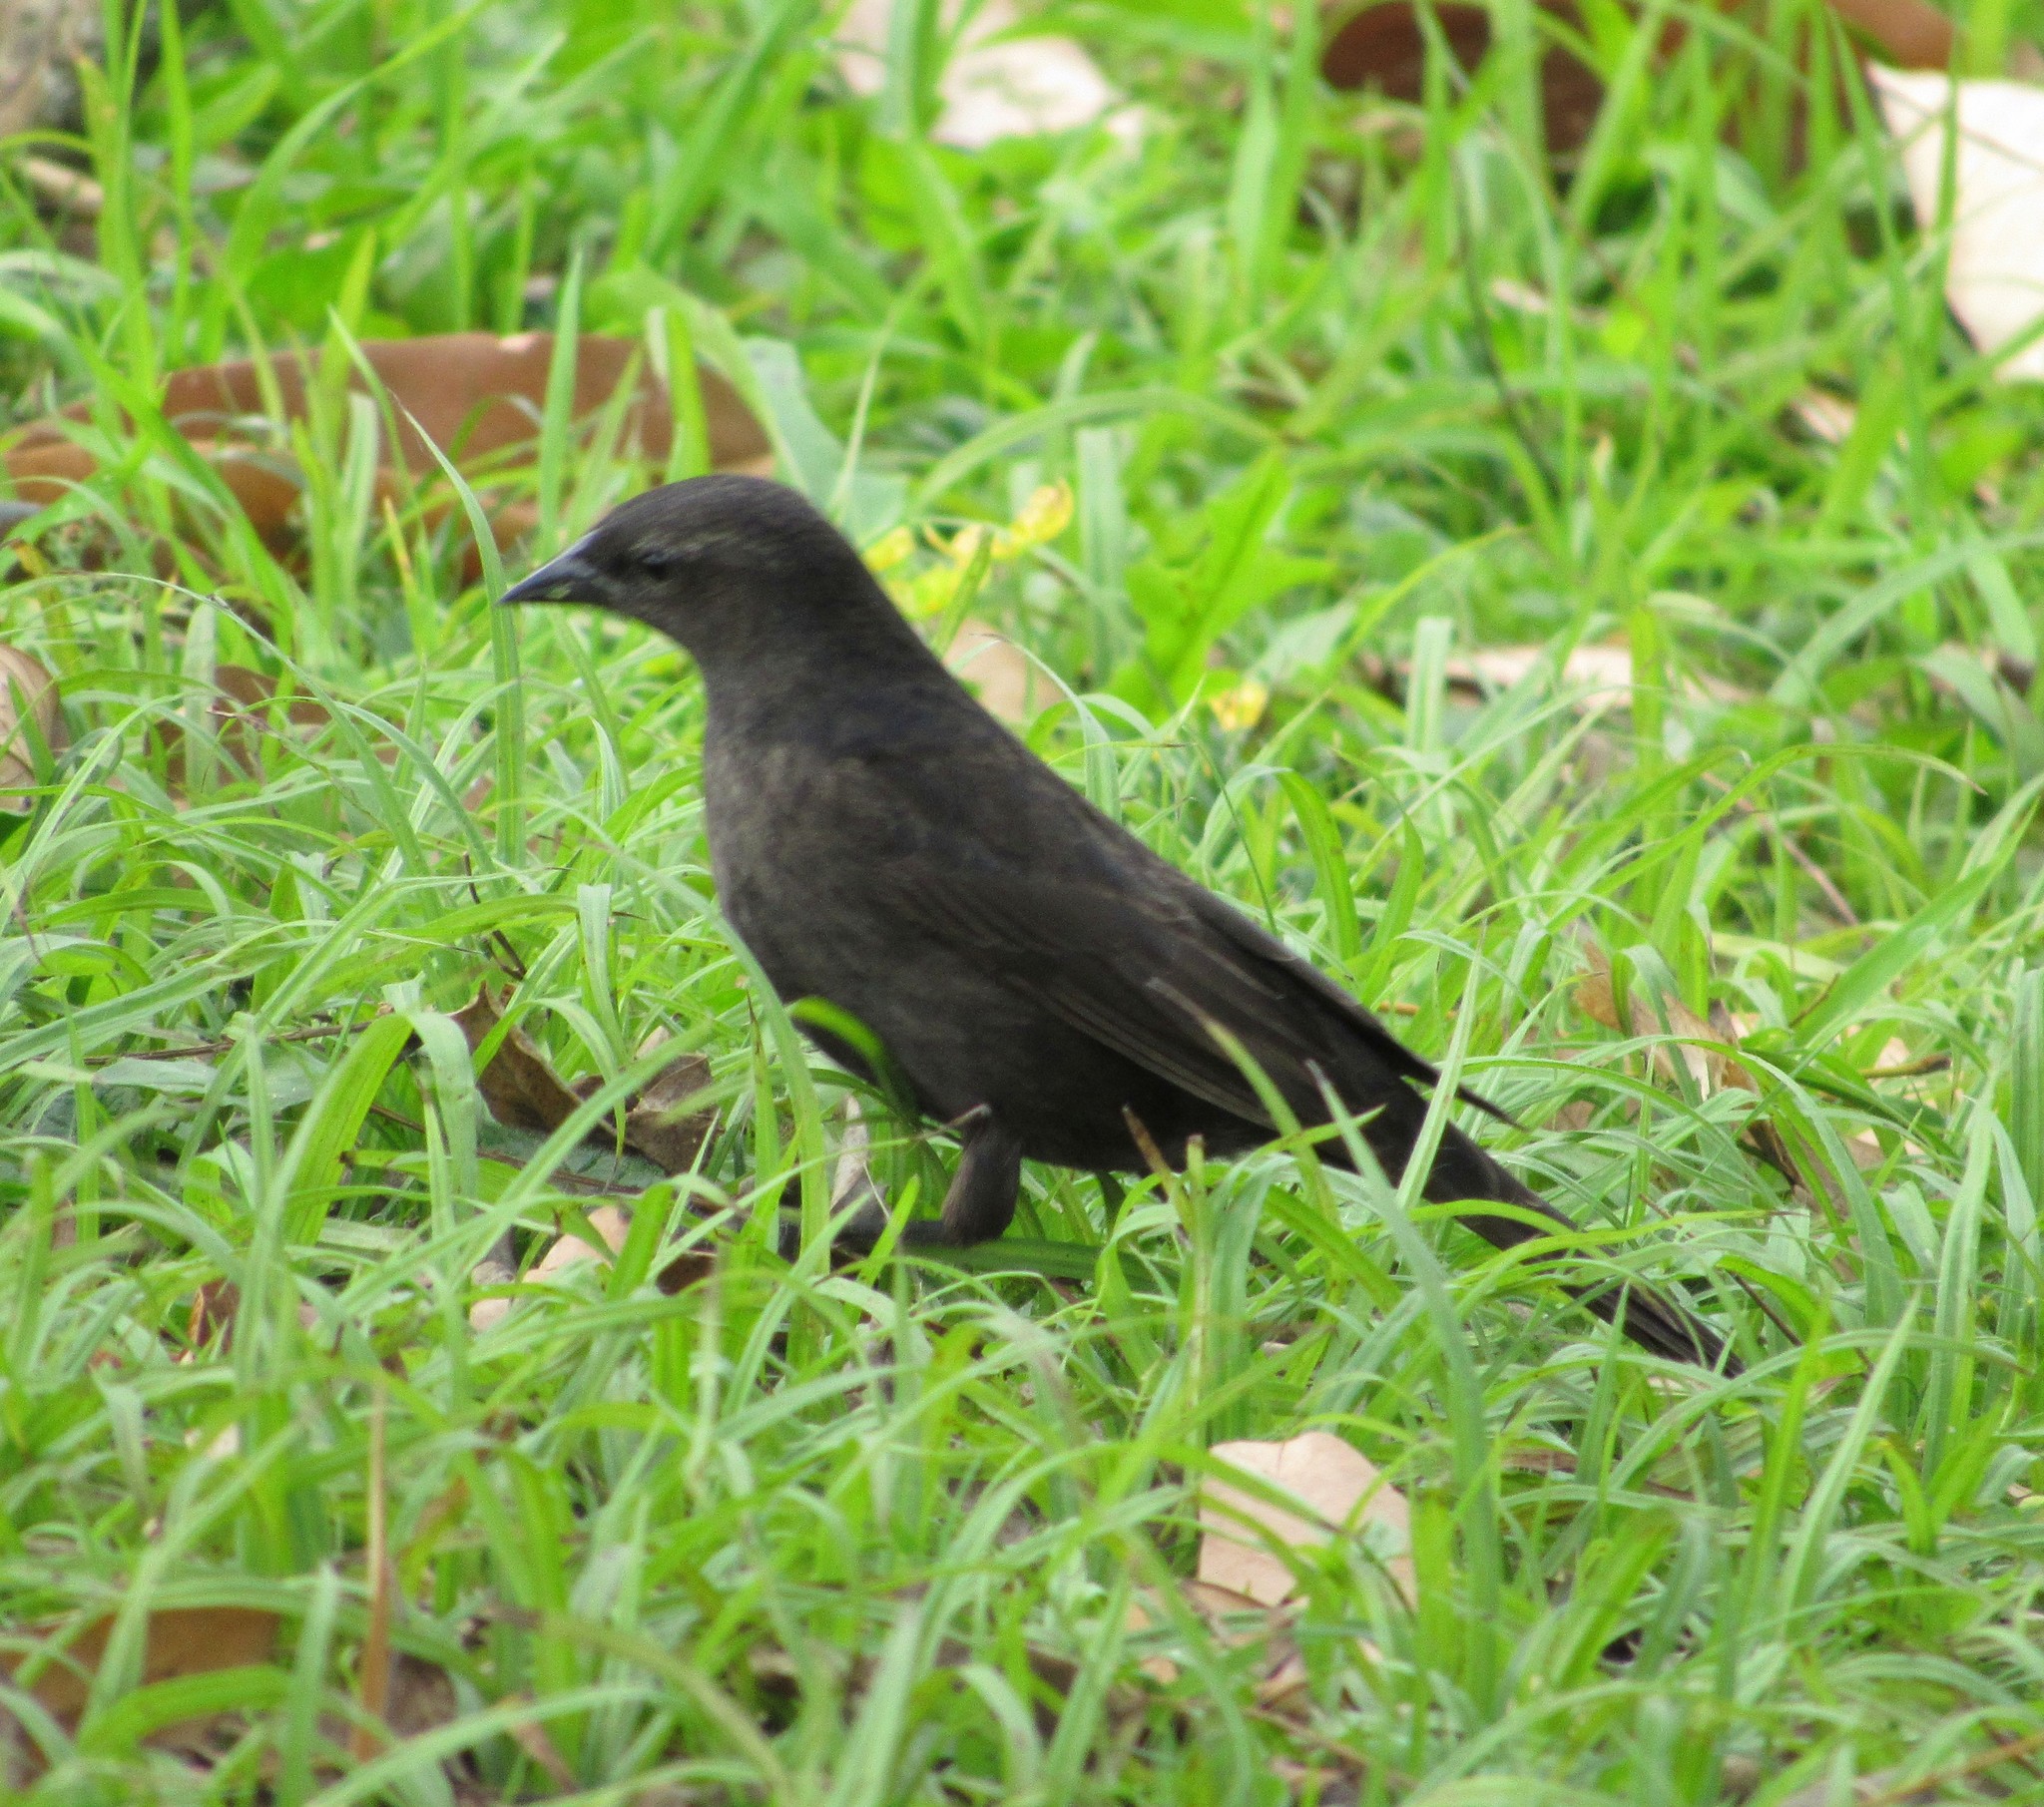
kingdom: Animalia
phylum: Chordata
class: Aves
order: Passeriformes
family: Icteridae
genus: Molothrus
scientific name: Molothrus bonariensis
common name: Shiny cowbird
